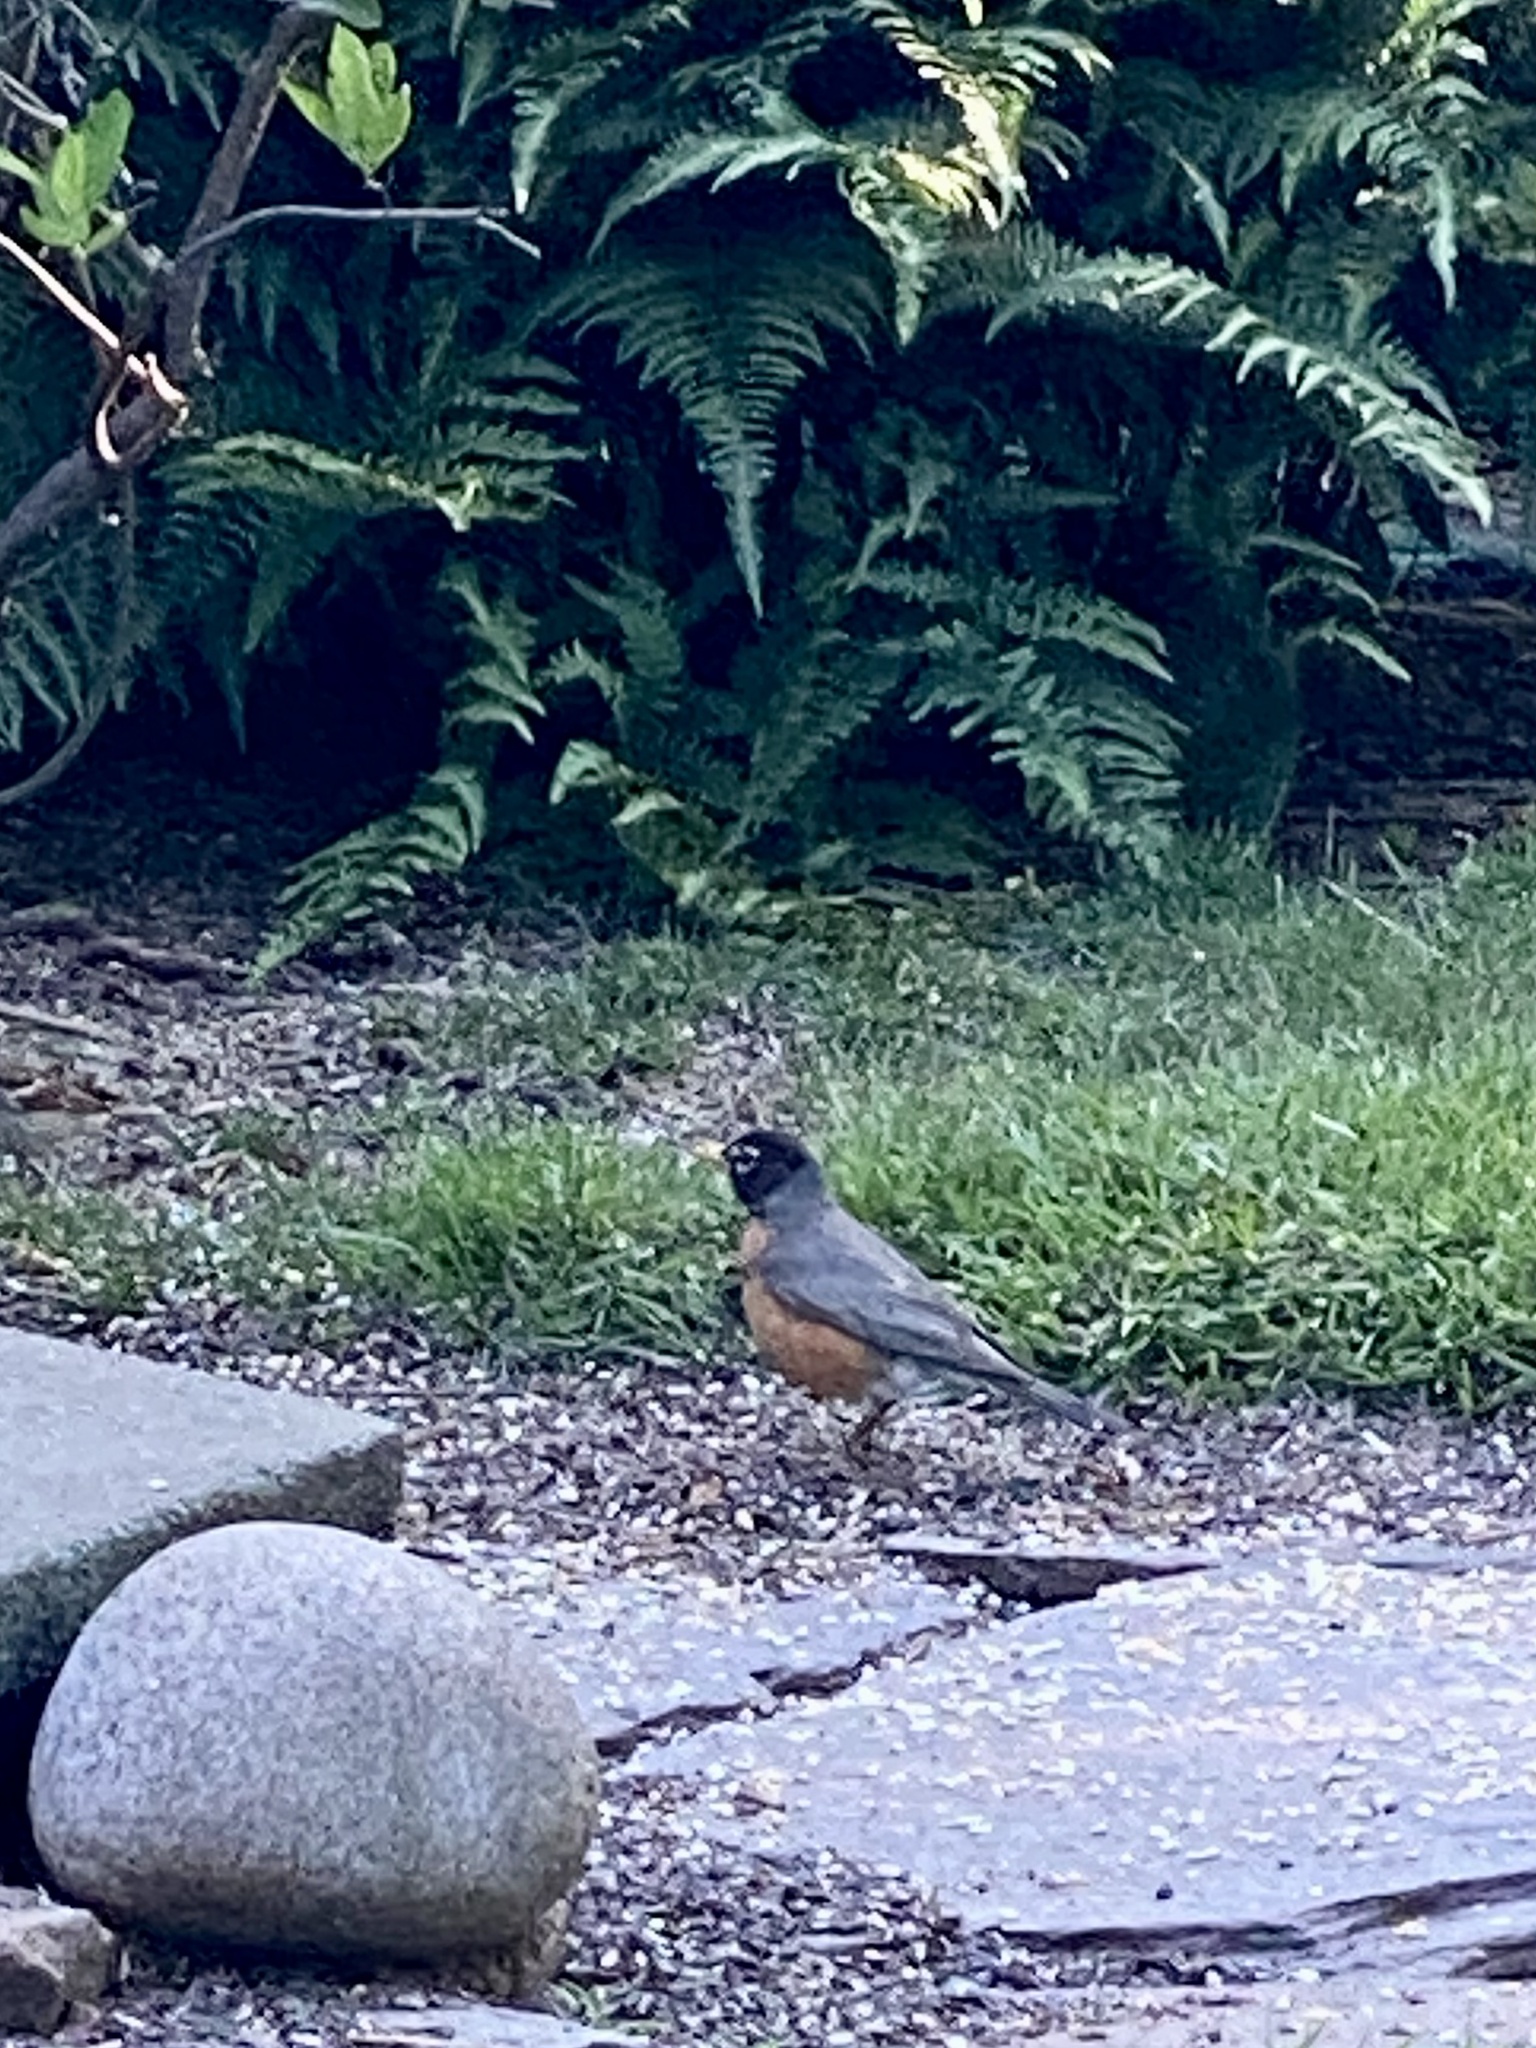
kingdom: Animalia
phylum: Chordata
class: Aves
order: Passeriformes
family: Turdidae
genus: Turdus
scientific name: Turdus migratorius
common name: American robin
